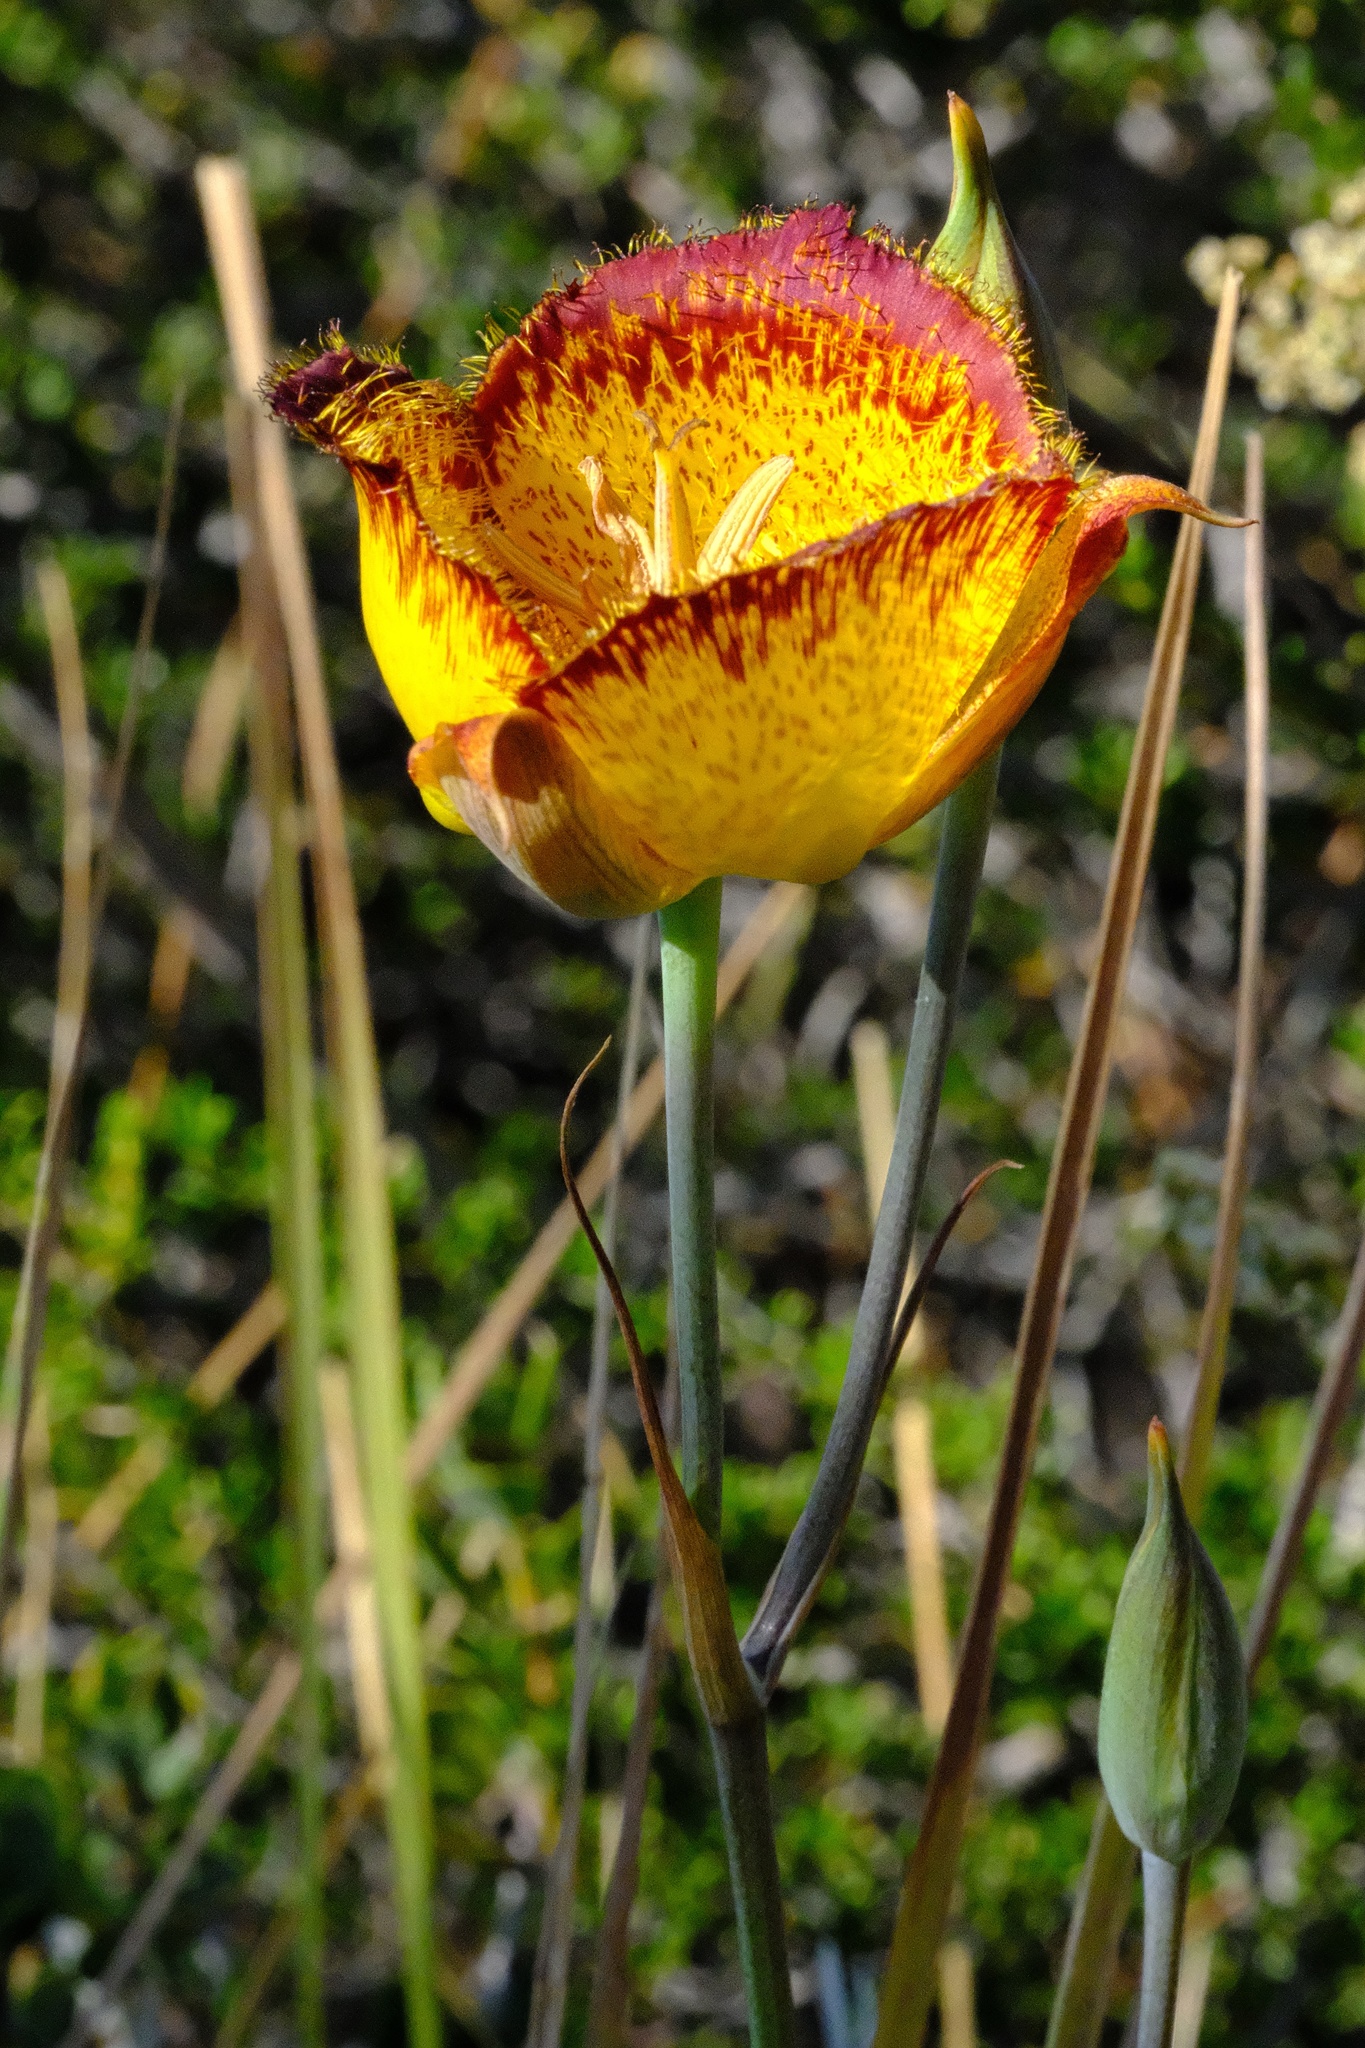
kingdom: Plantae
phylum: Tracheophyta
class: Liliopsida
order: Liliales
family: Liliaceae
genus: Calochortus
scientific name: Calochortus weedii
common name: Weed's mariposa-lily
